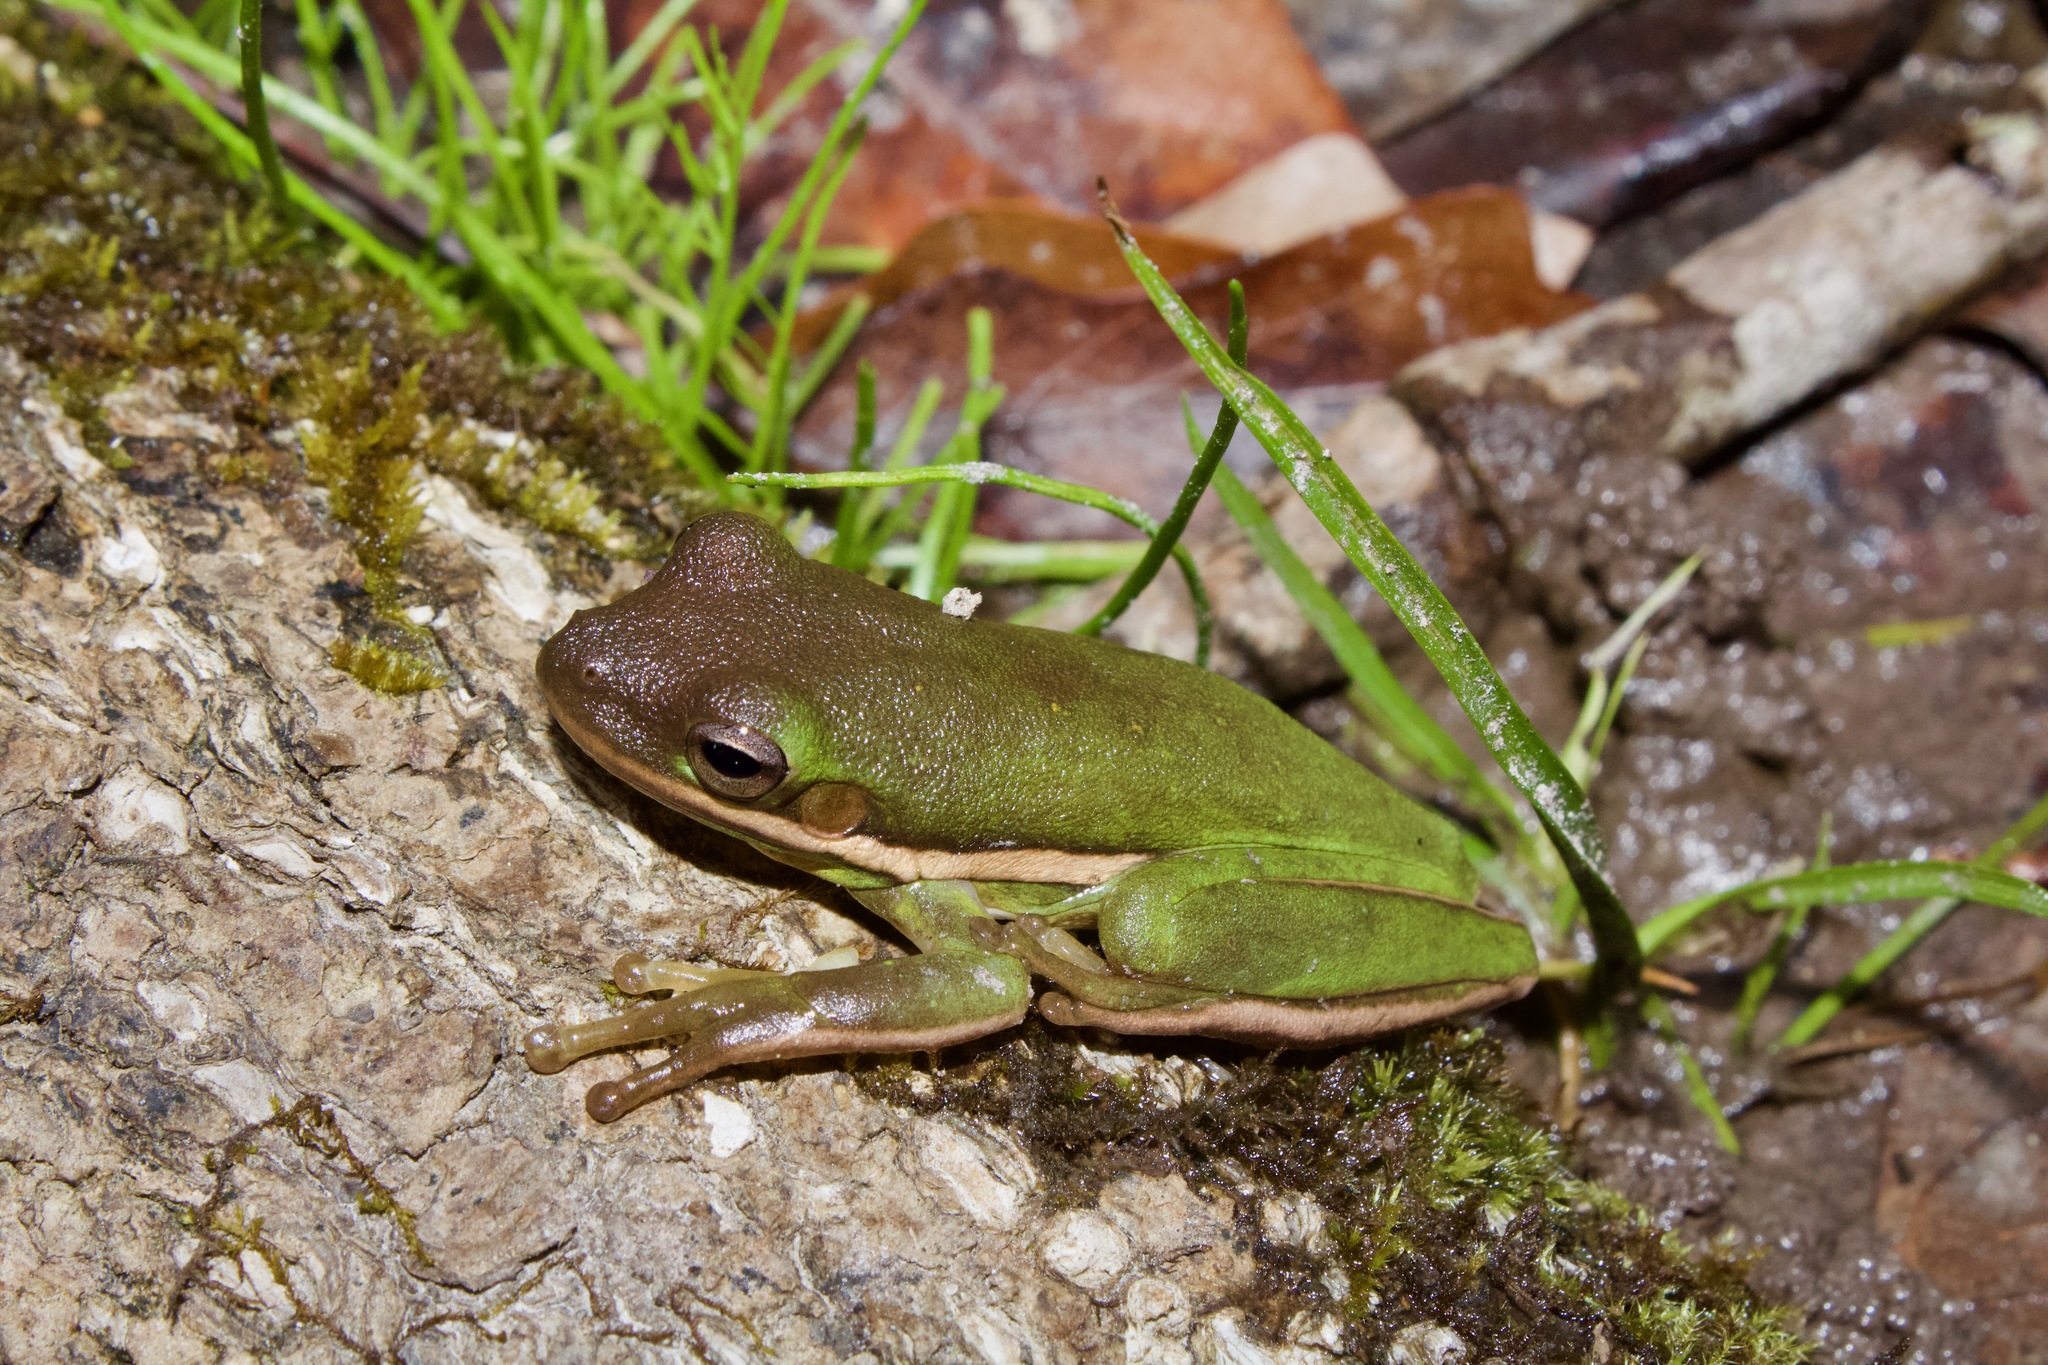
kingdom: Animalia
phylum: Chordata
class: Amphibia
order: Anura
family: Hylidae
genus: Dryophytes
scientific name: Dryophytes cinereus
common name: Green treefrog
